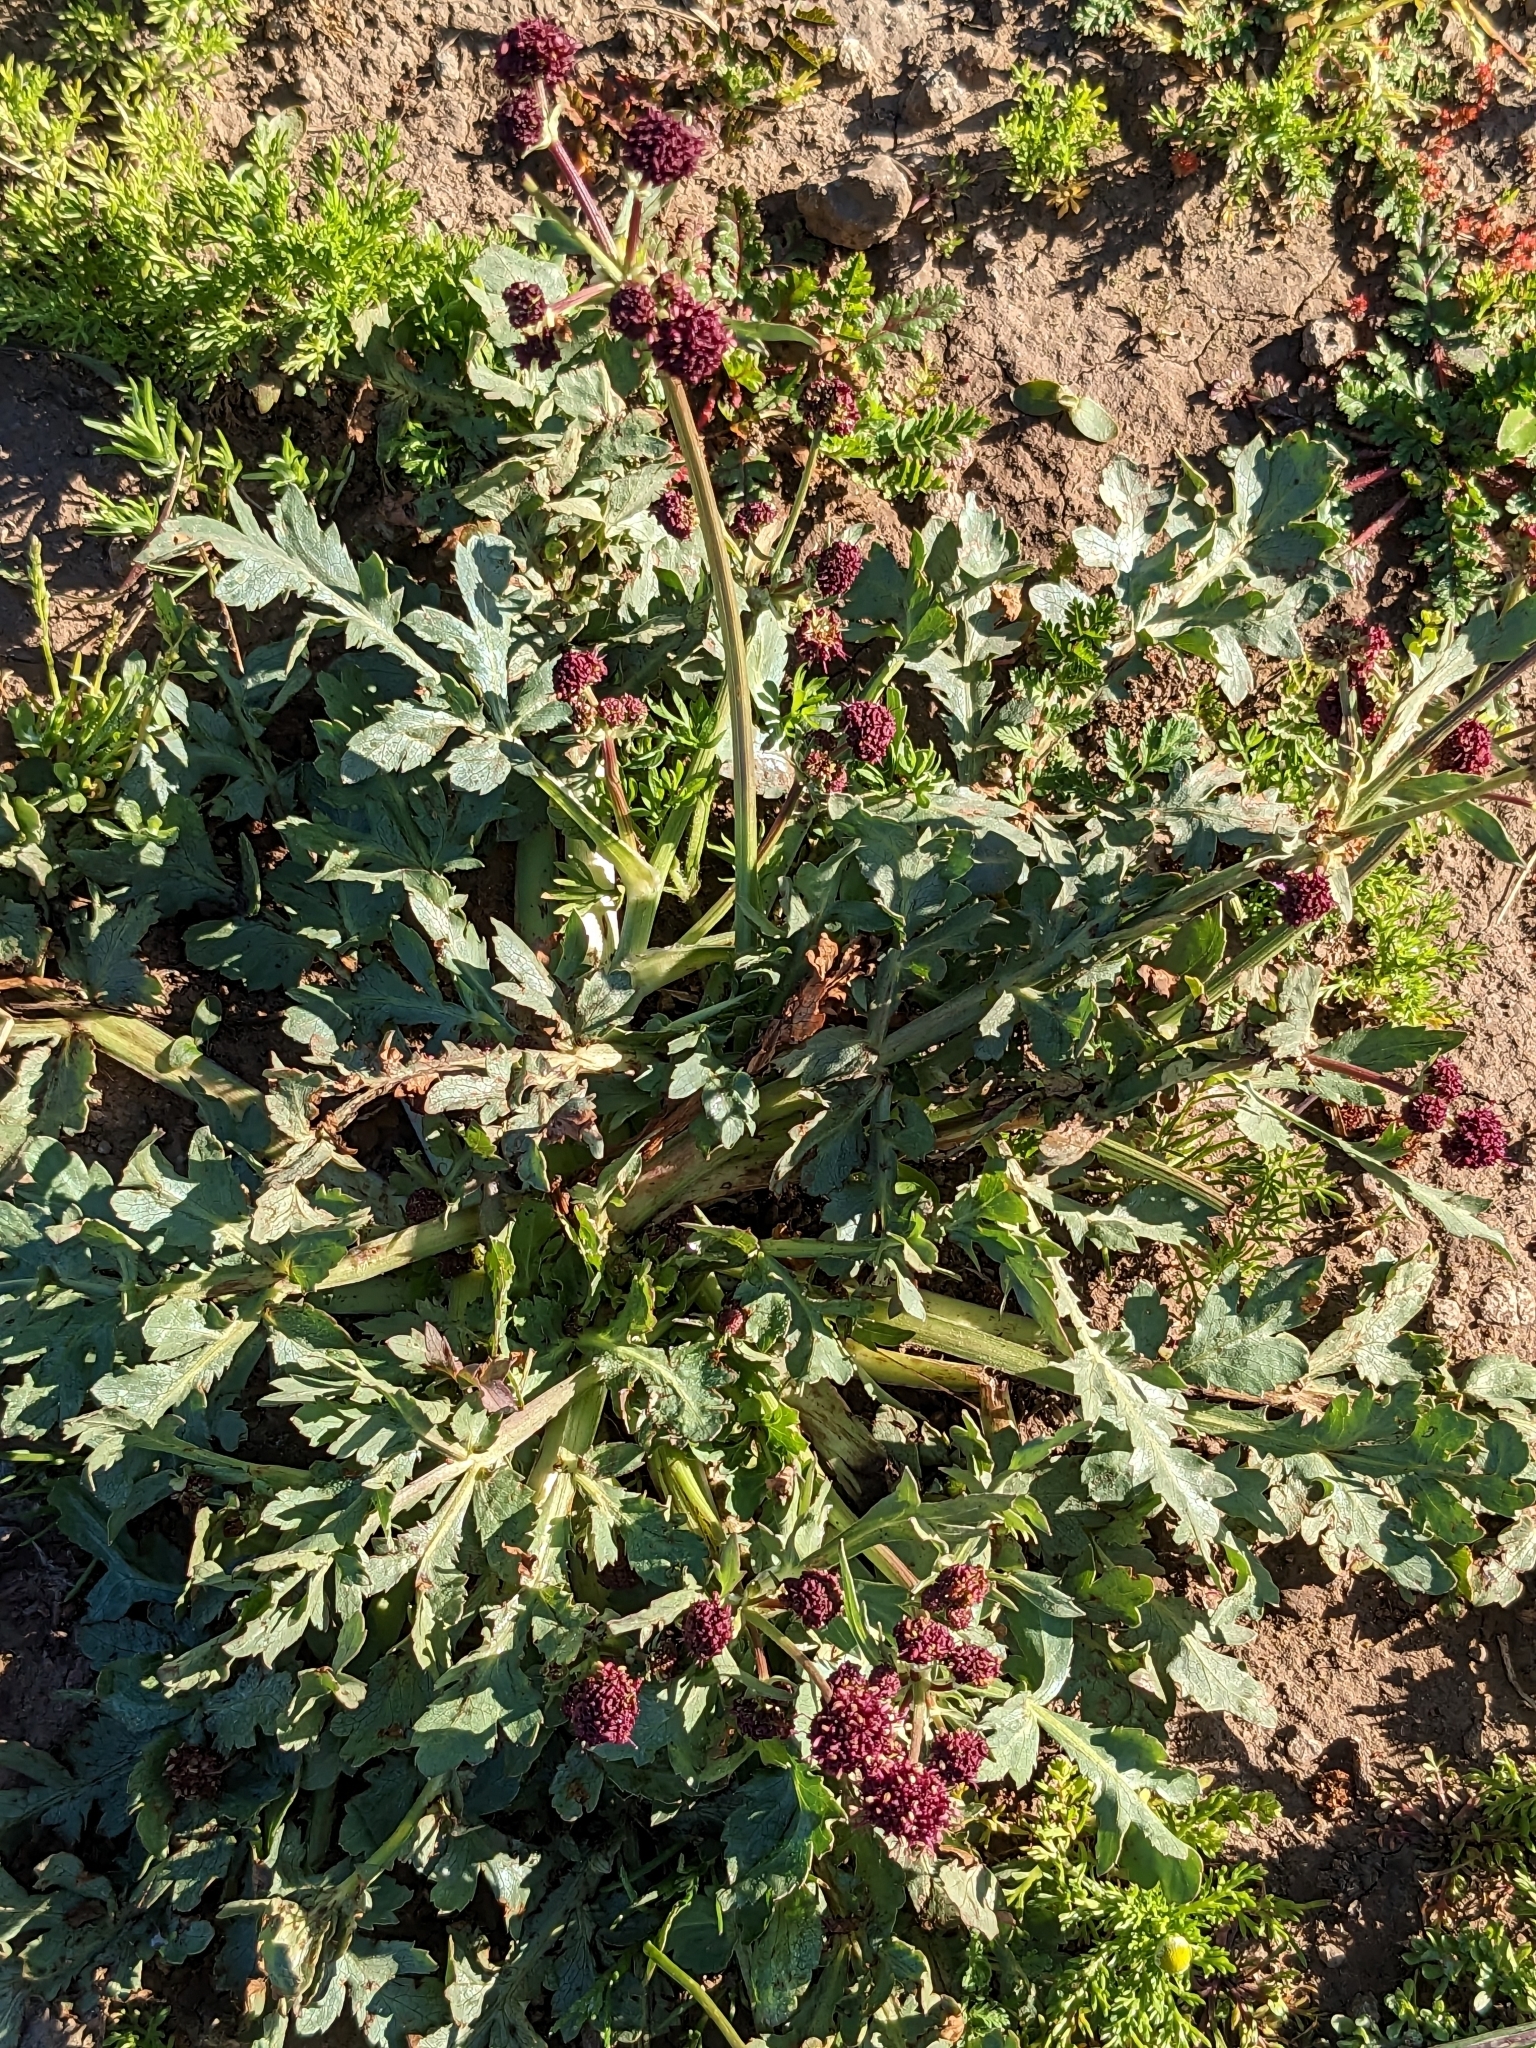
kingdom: Plantae
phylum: Tracheophyta
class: Magnoliopsida
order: Apiales
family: Apiaceae
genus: Sanicula
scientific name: Sanicula bipinnatifida
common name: Shoe-buttons
